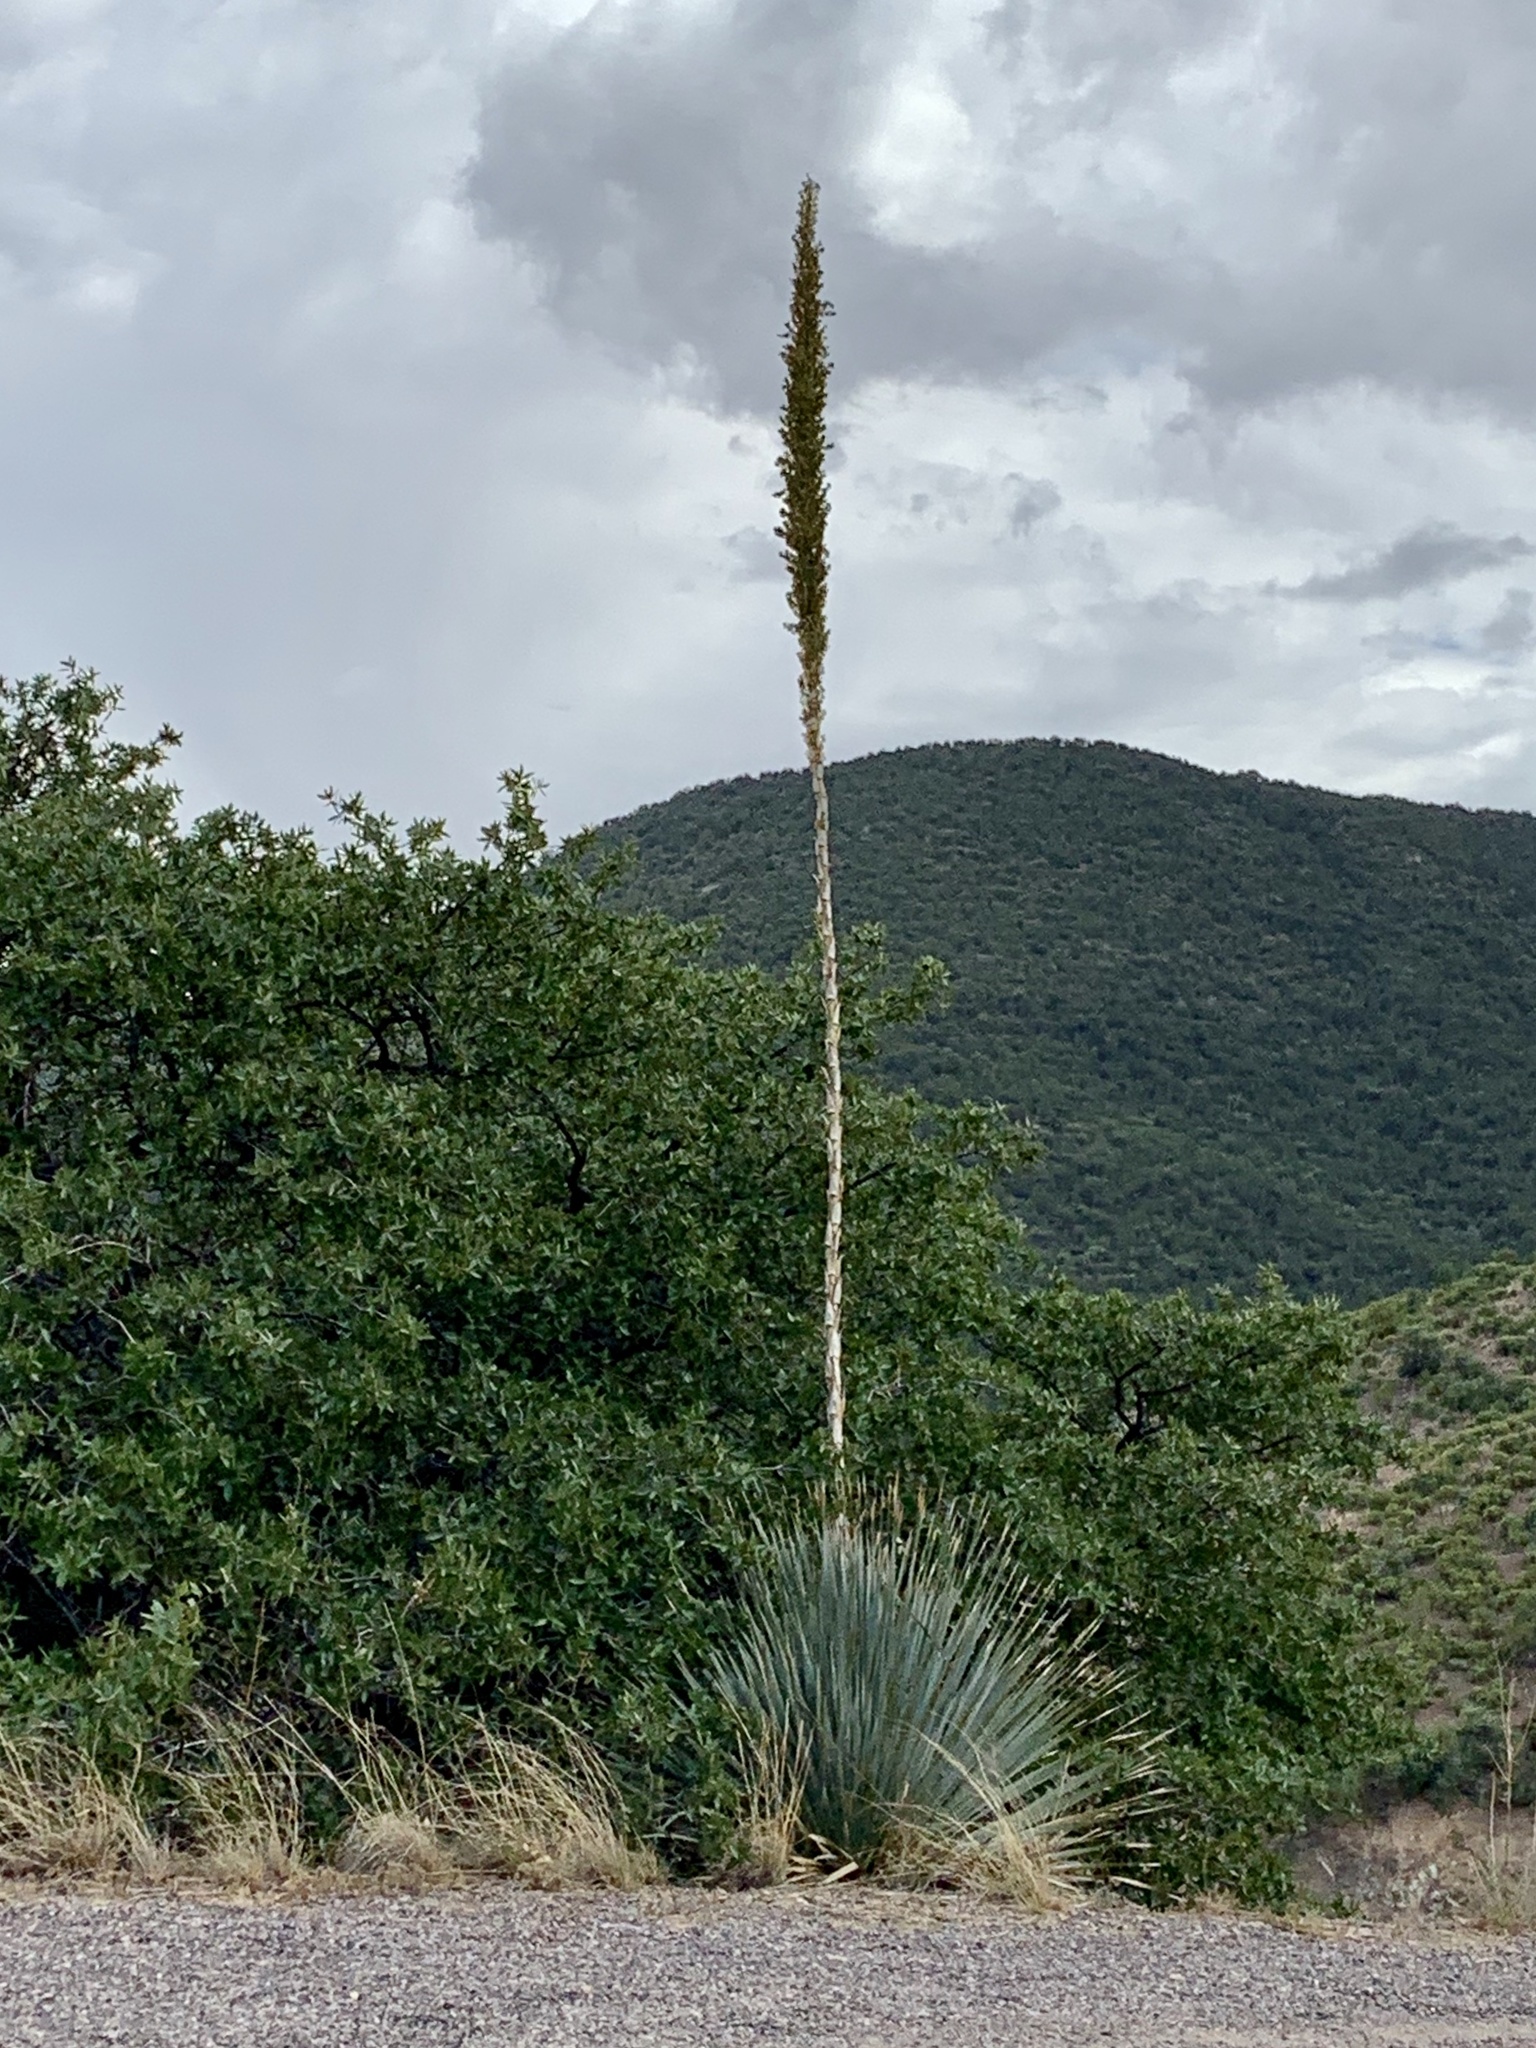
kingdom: Plantae
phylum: Tracheophyta
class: Liliopsida
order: Asparagales
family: Asparagaceae
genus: Dasylirion
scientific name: Dasylirion wheeleri
